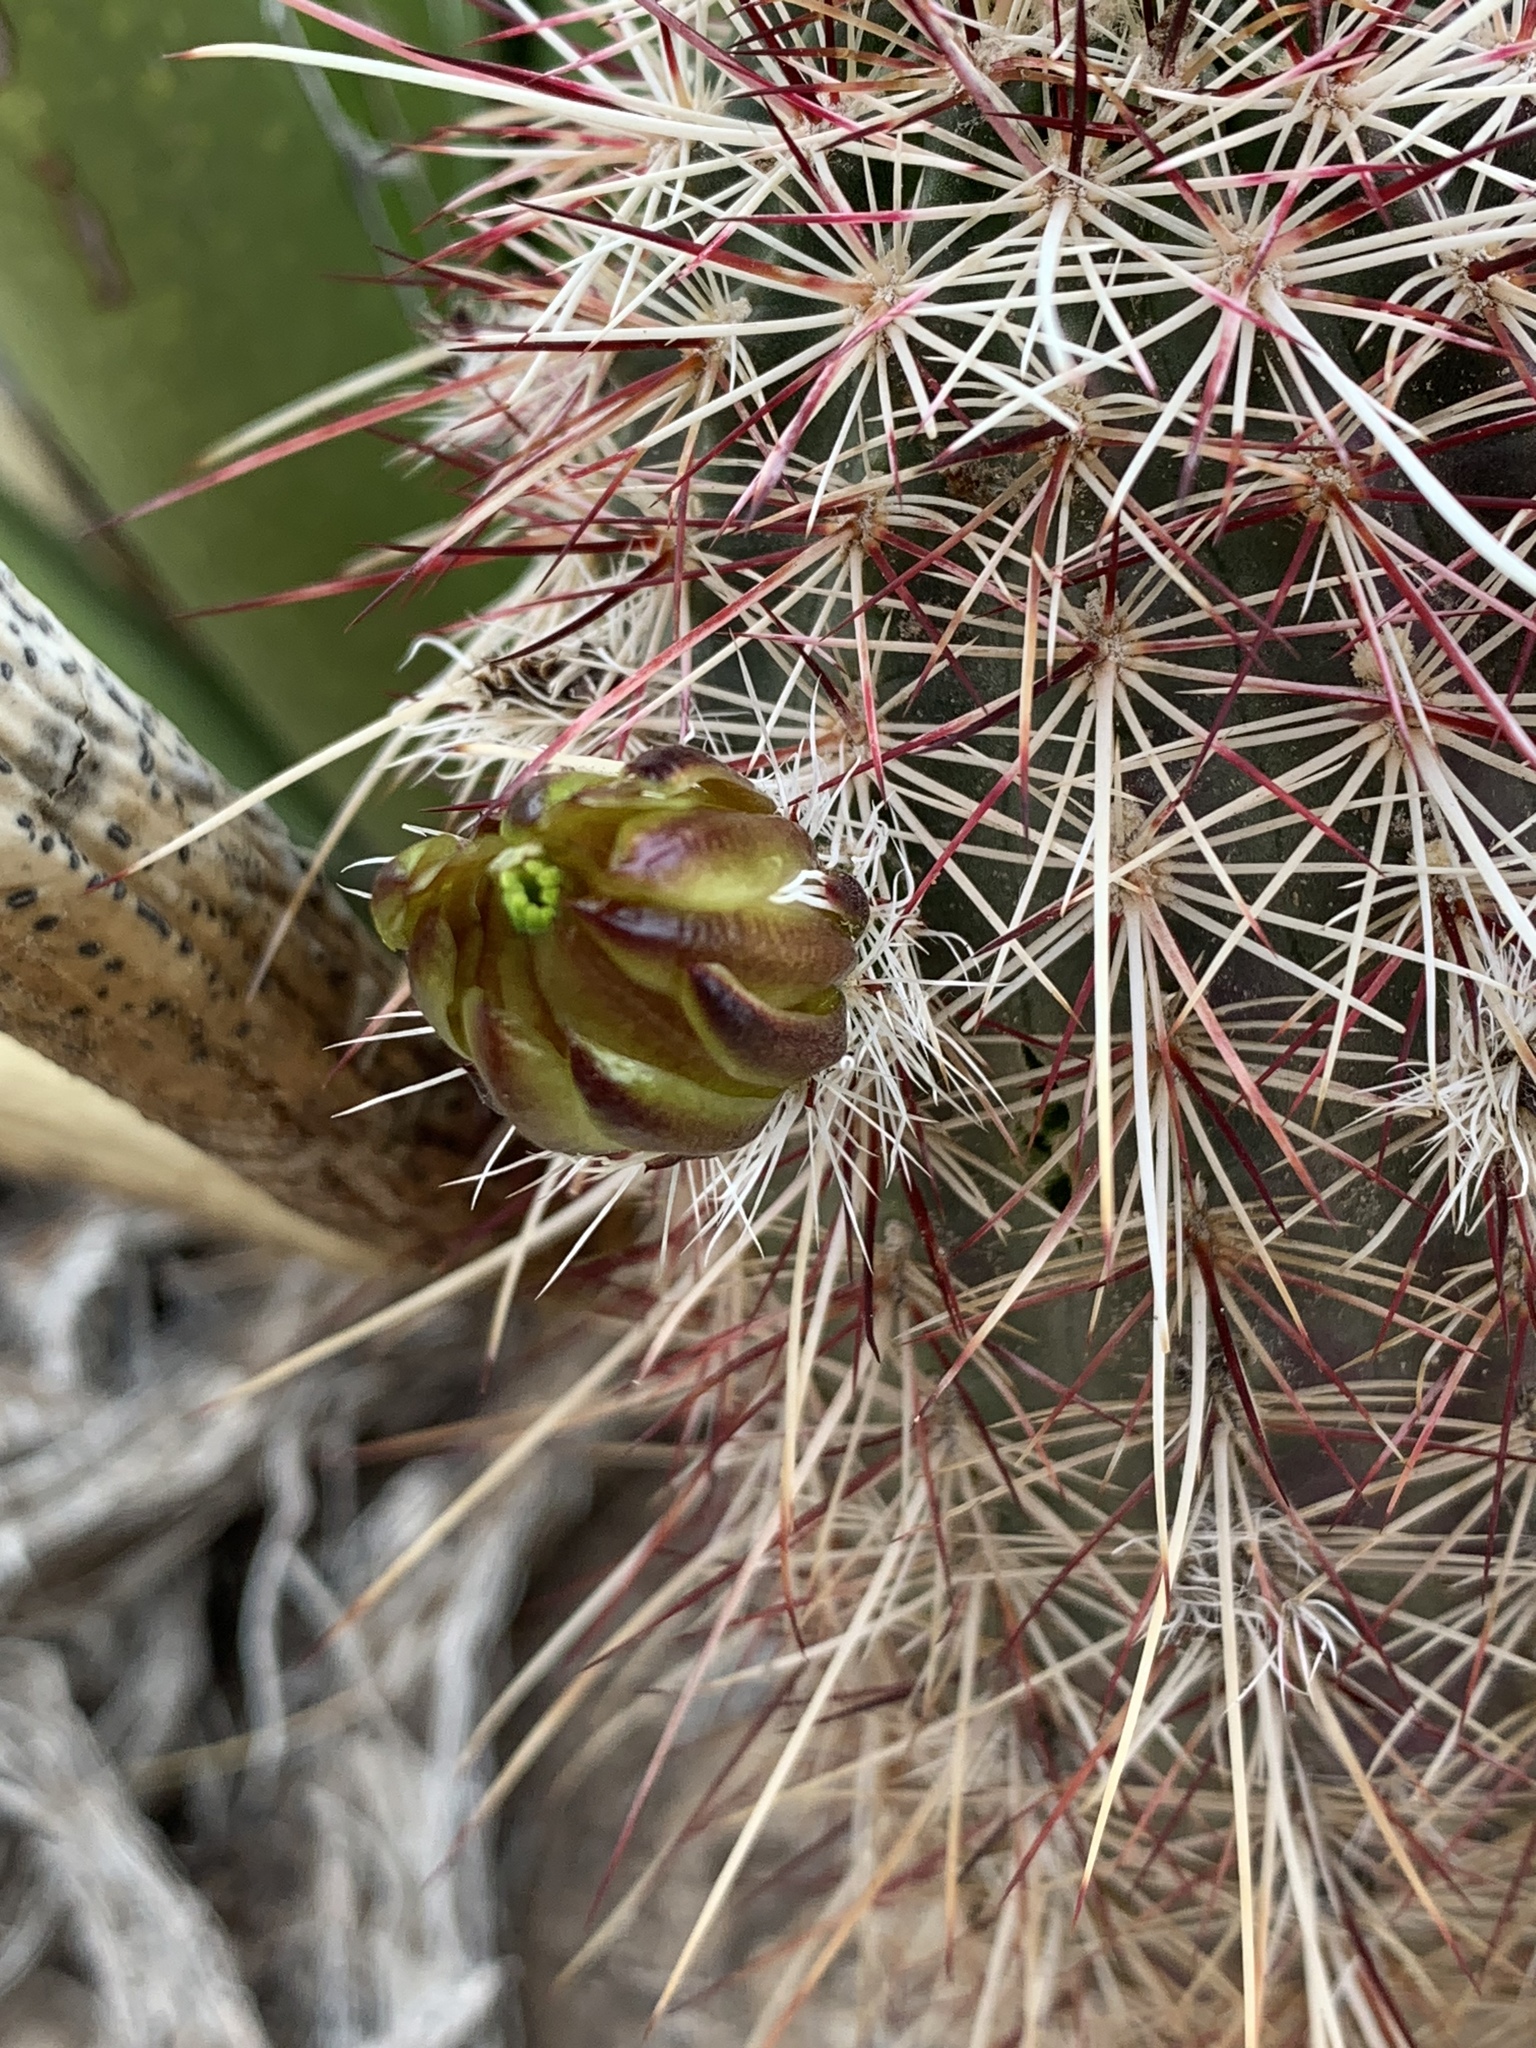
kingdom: Plantae
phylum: Tracheophyta
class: Magnoliopsida
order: Caryophyllales
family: Cactaceae
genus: Echinocereus
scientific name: Echinocereus viridiflorus
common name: Nylon hedgehog cactus
